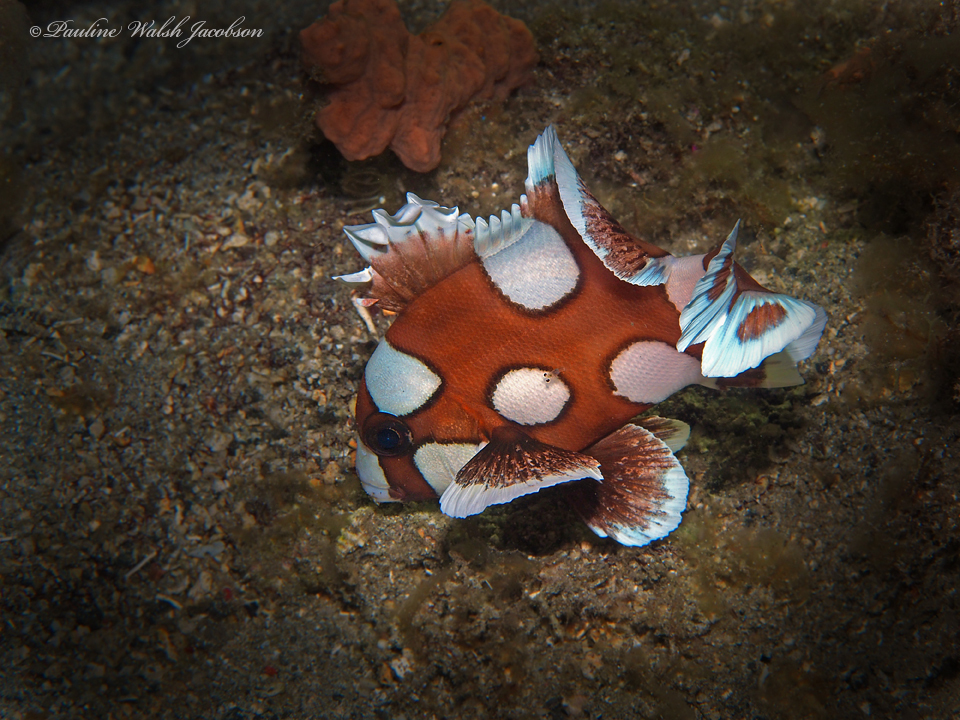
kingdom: Animalia
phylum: Chordata
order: Perciformes
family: Haemulidae
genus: Plectorhinchus
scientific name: Plectorhinchus chaetodonoides
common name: Harlequin sweetlips
